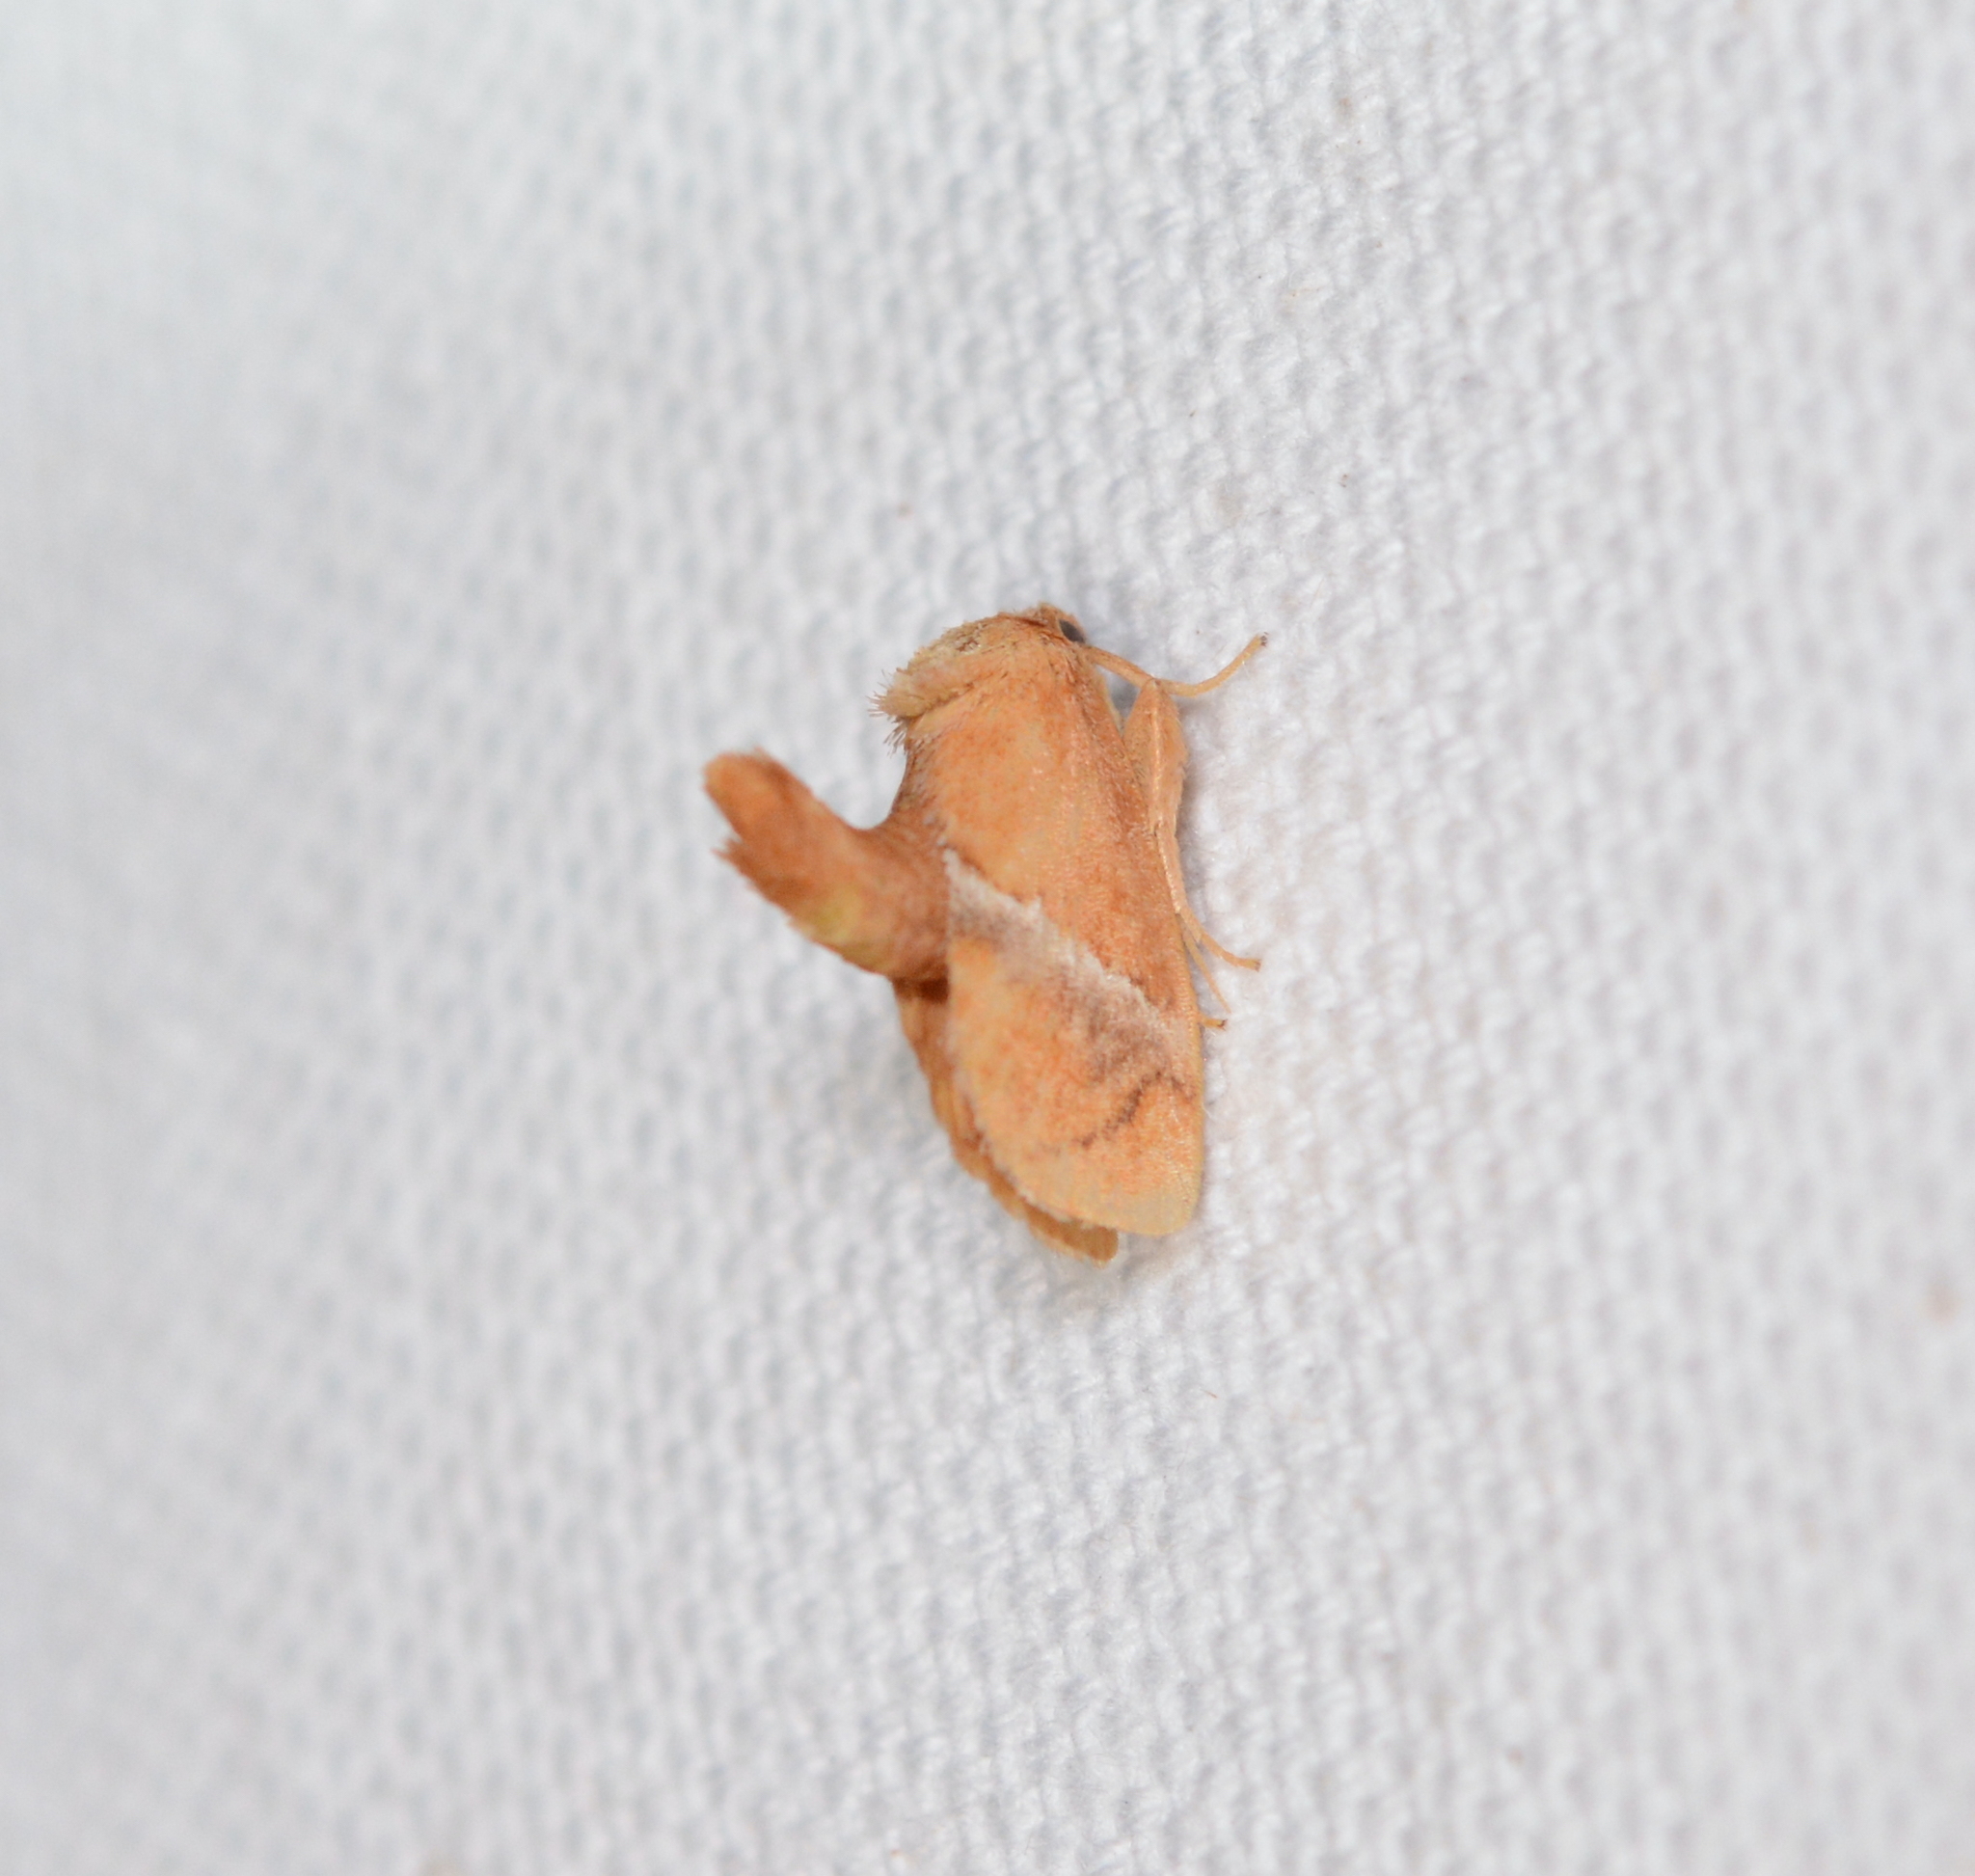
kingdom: Animalia
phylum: Arthropoda
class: Insecta
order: Lepidoptera
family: Limacodidae
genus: Lithacodes
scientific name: Lithacodes fasciola
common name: Yellow-shouldered slug moth
